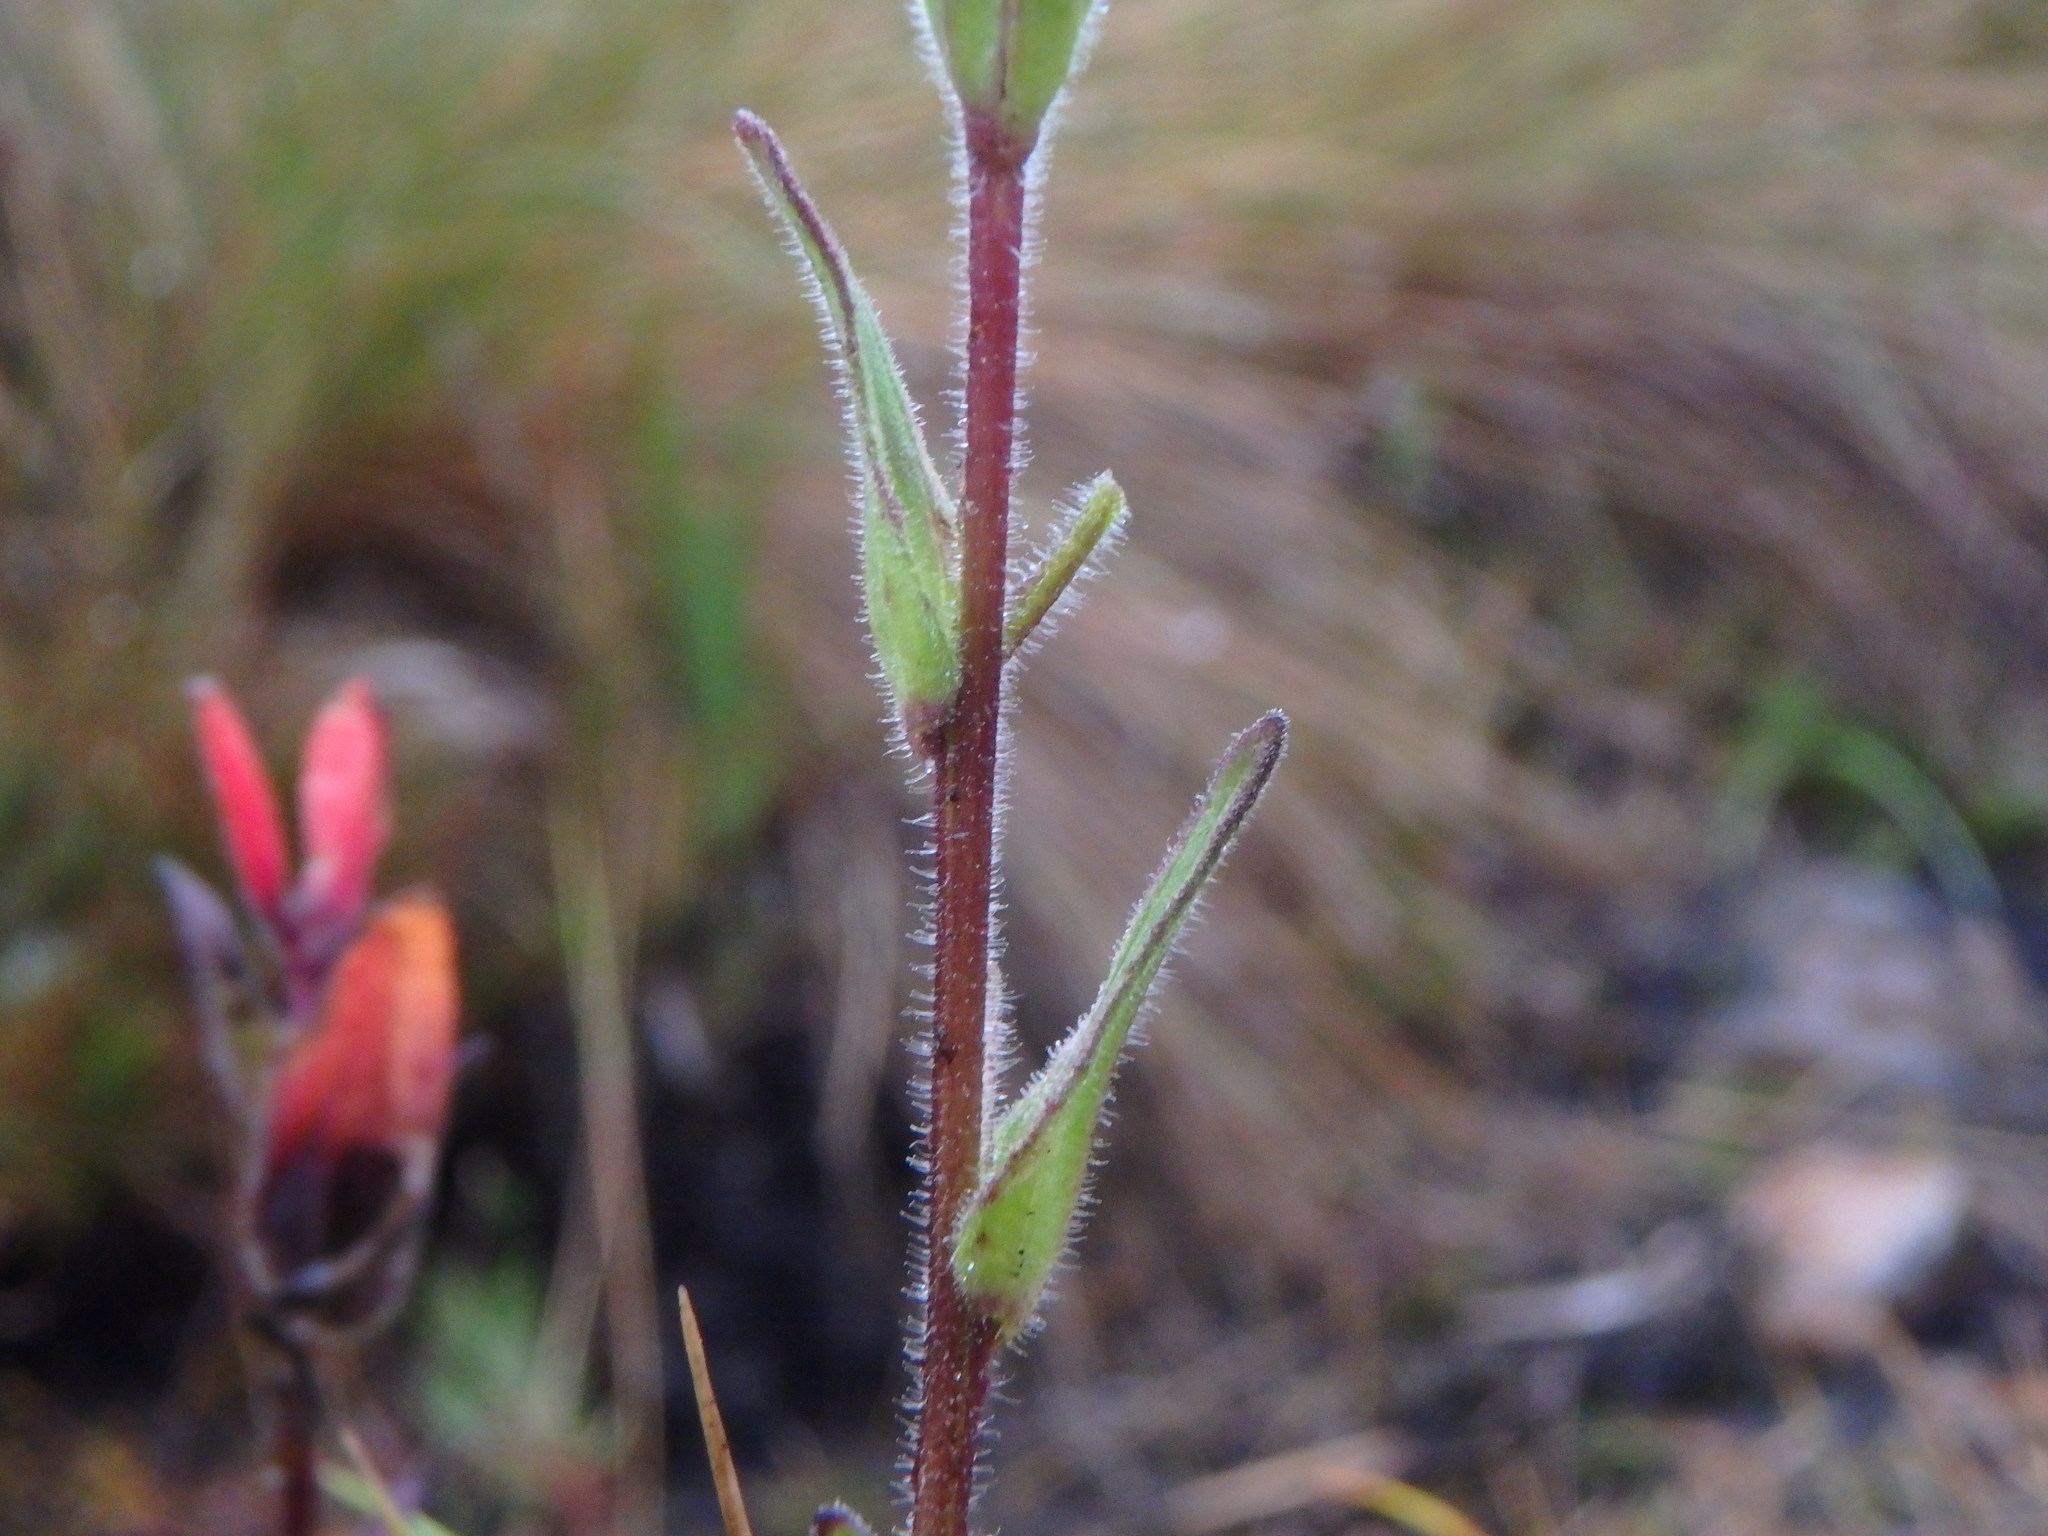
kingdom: Plantae
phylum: Tracheophyta
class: Magnoliopsida
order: Lamiales
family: Orobanchaceae
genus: Castilleja
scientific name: Castilleja integrifolia
